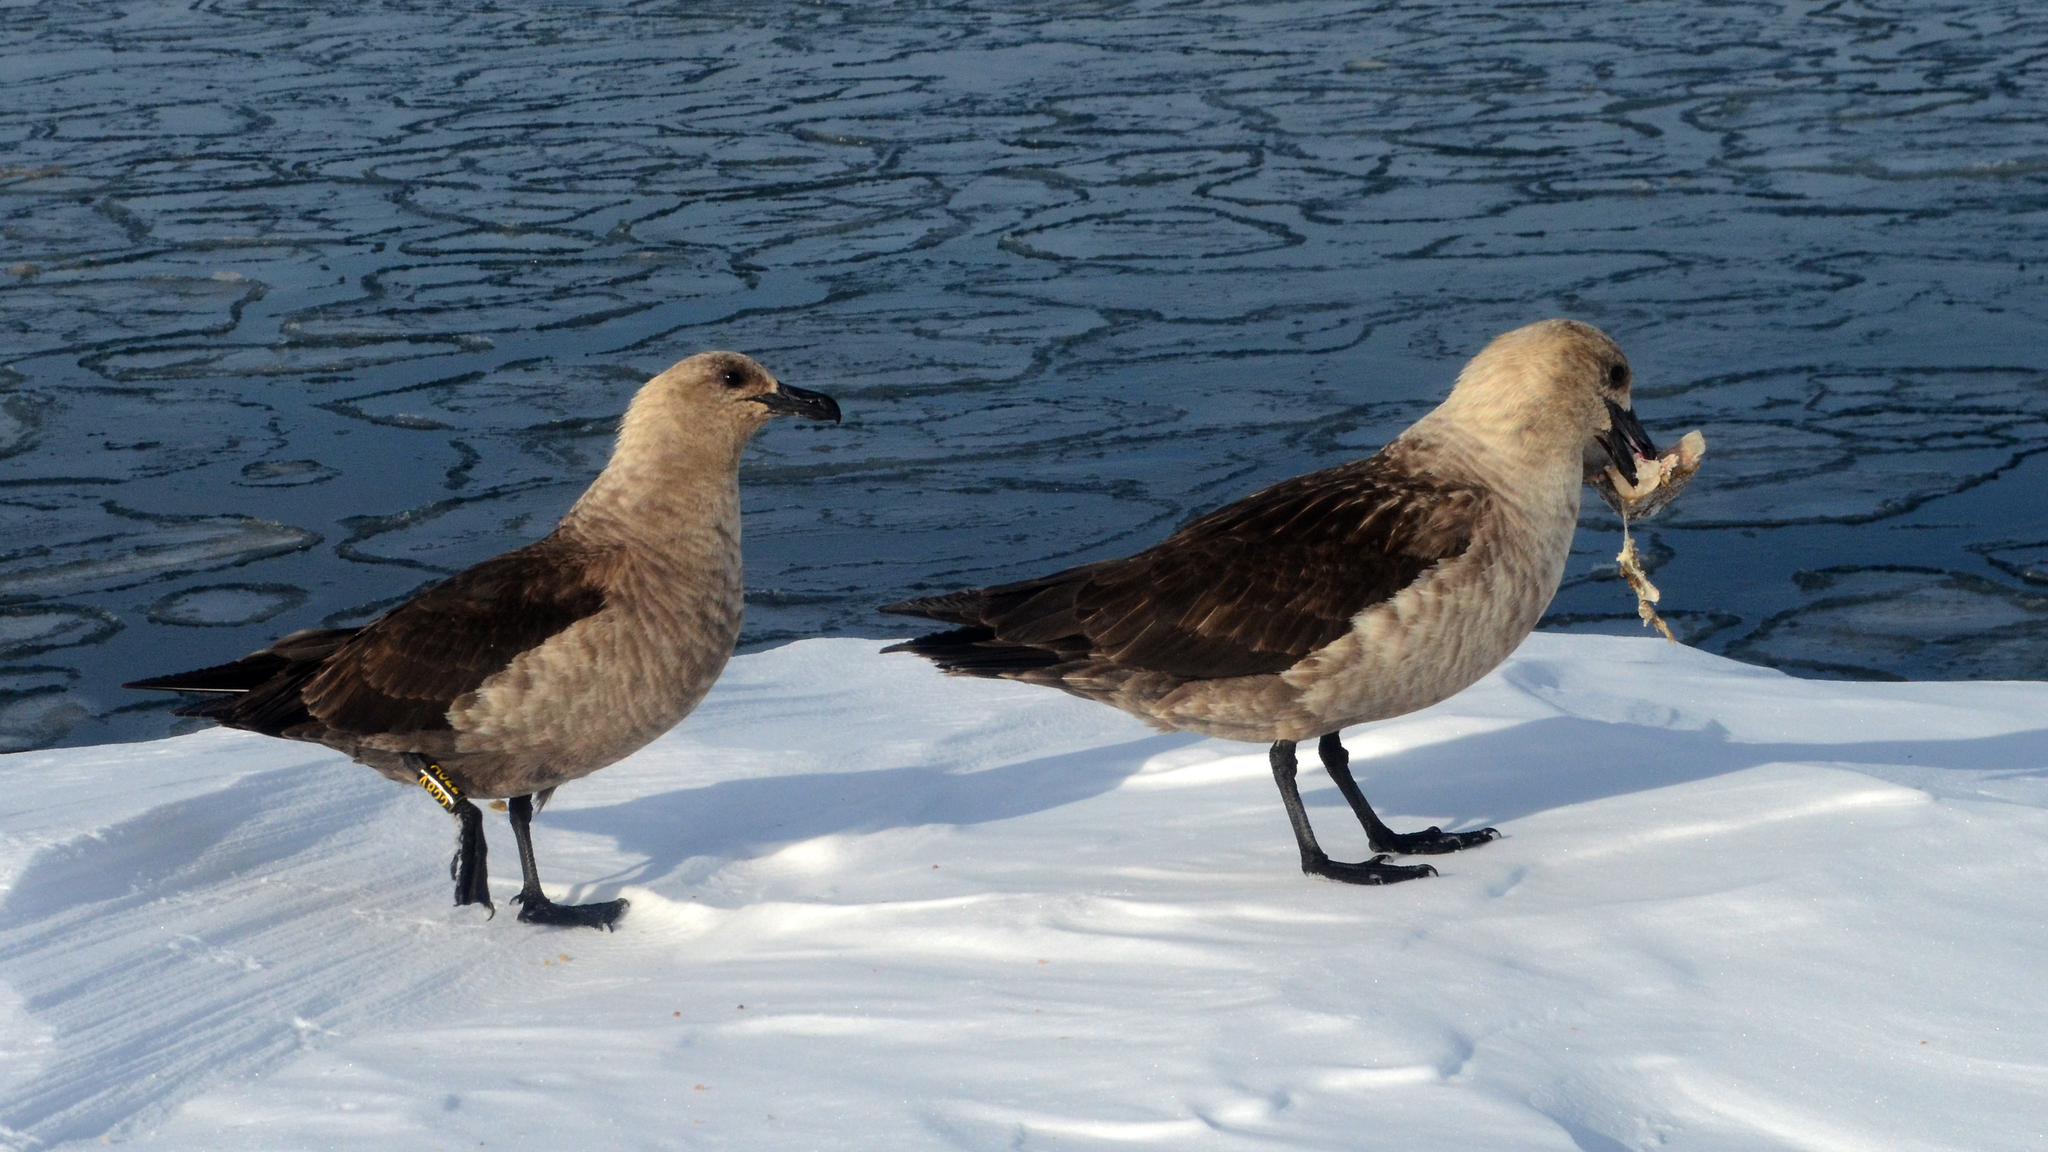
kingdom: Animalia
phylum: Chordata
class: Aves
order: Charadriiformes
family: Stercorariidae
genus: Stercorarius
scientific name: Stercorarius maccormicki
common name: South polar skua
